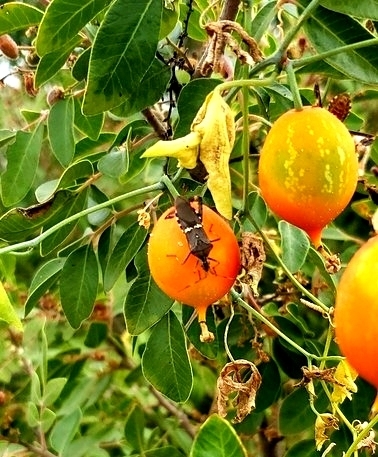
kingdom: Animalia
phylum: Arthropoda
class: Insecta
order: Hemiptera
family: Coreidae
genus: Leptoglossus
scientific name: Leptoglossus clypealis
